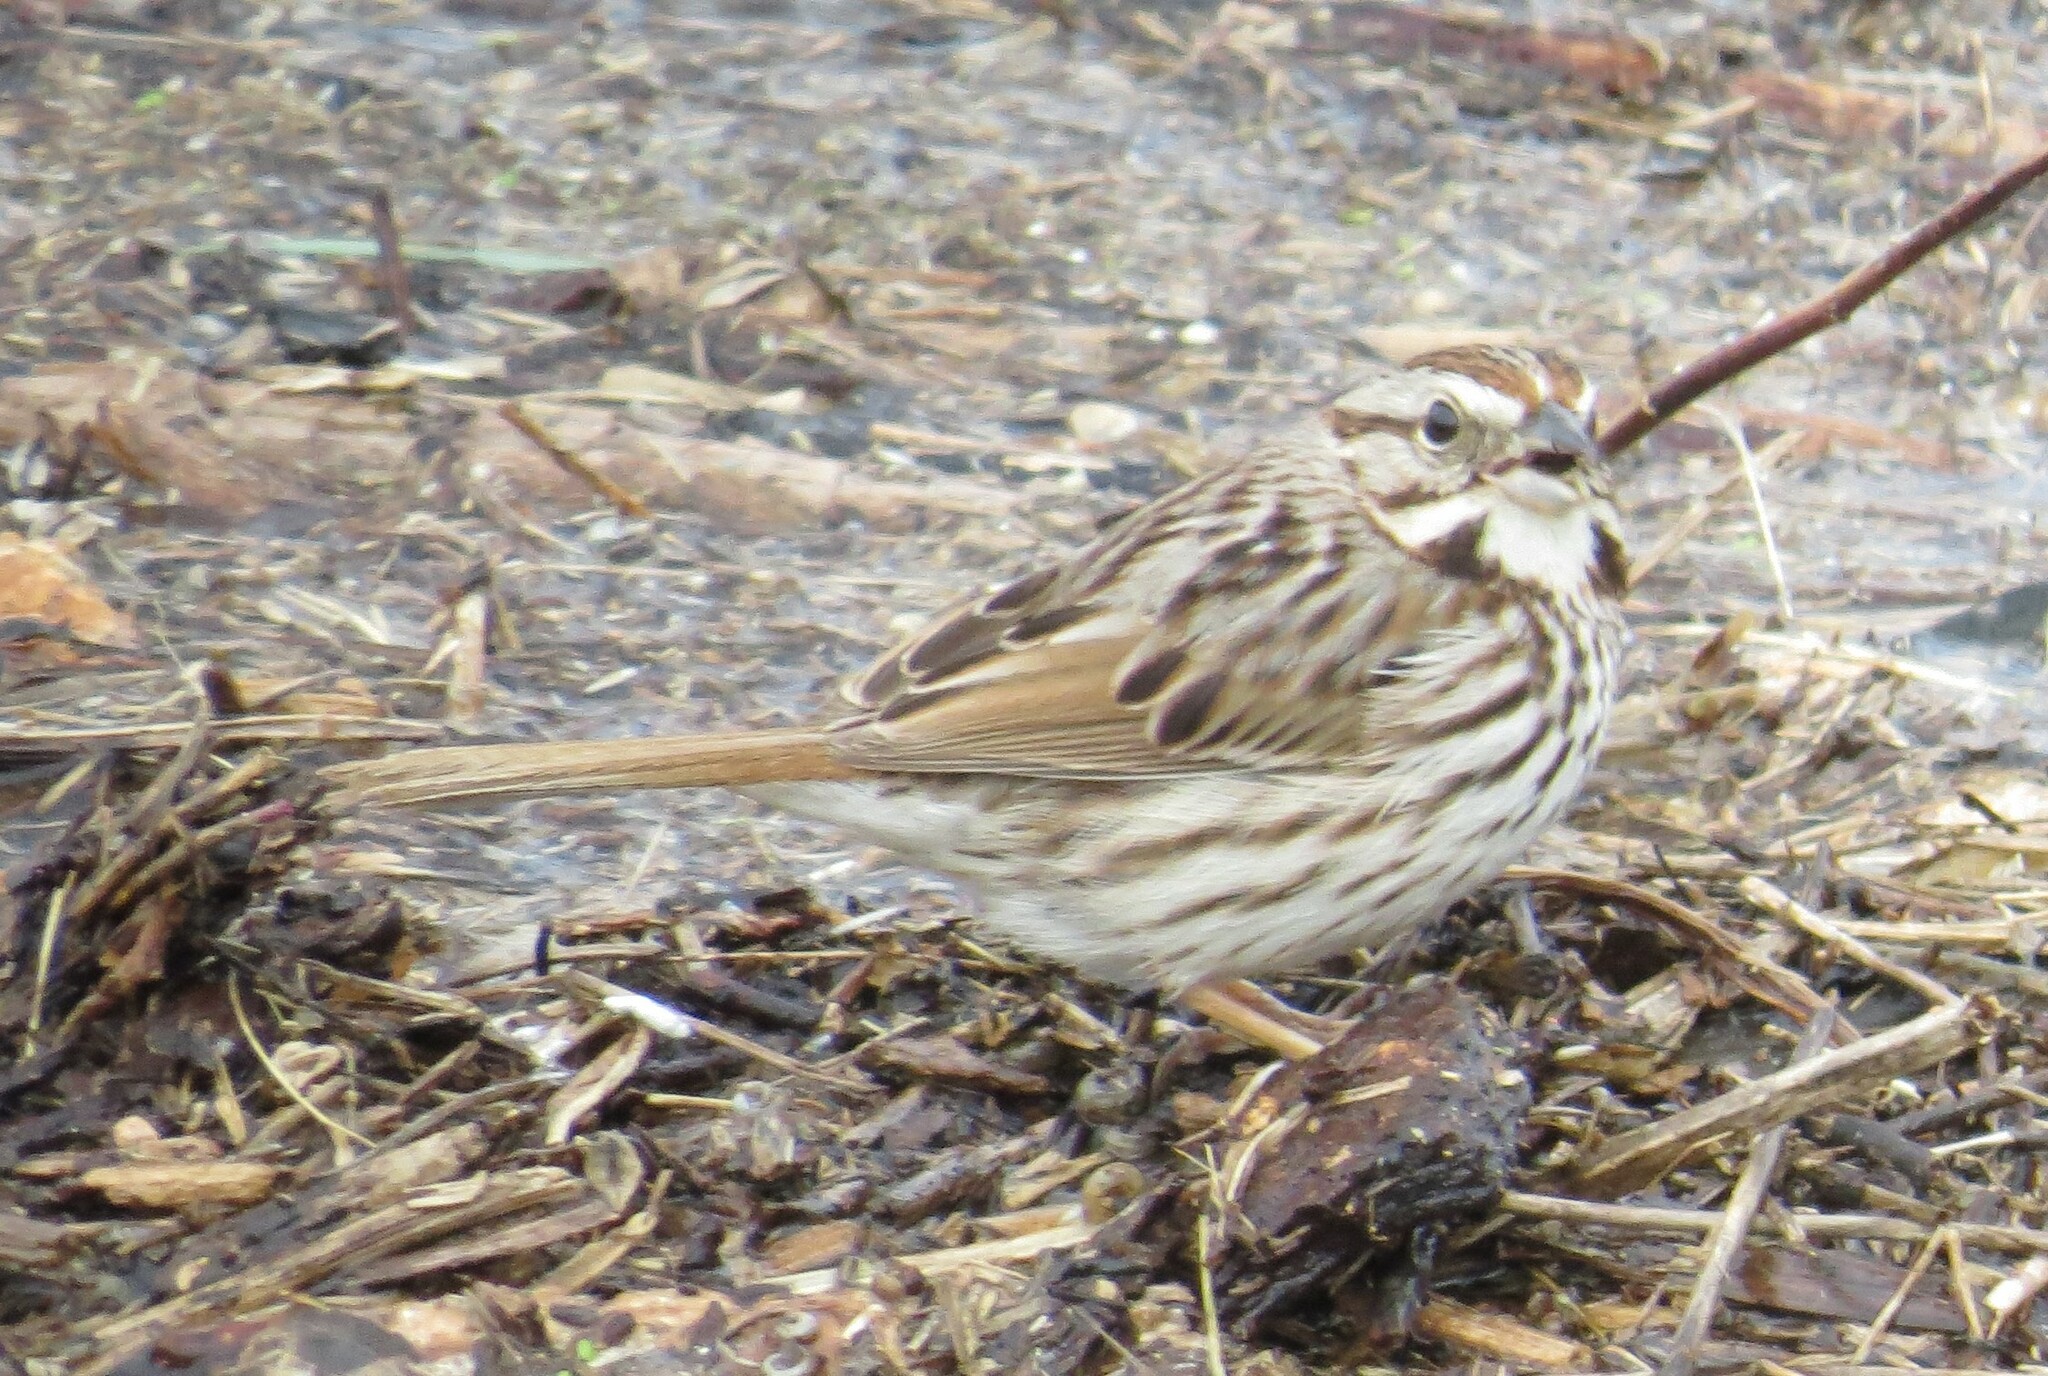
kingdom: Animalia
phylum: Chordata
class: Aves
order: Passeriformes
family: Passerellidae
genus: Melospiza
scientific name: Melospiza melodia
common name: Song sparrow
